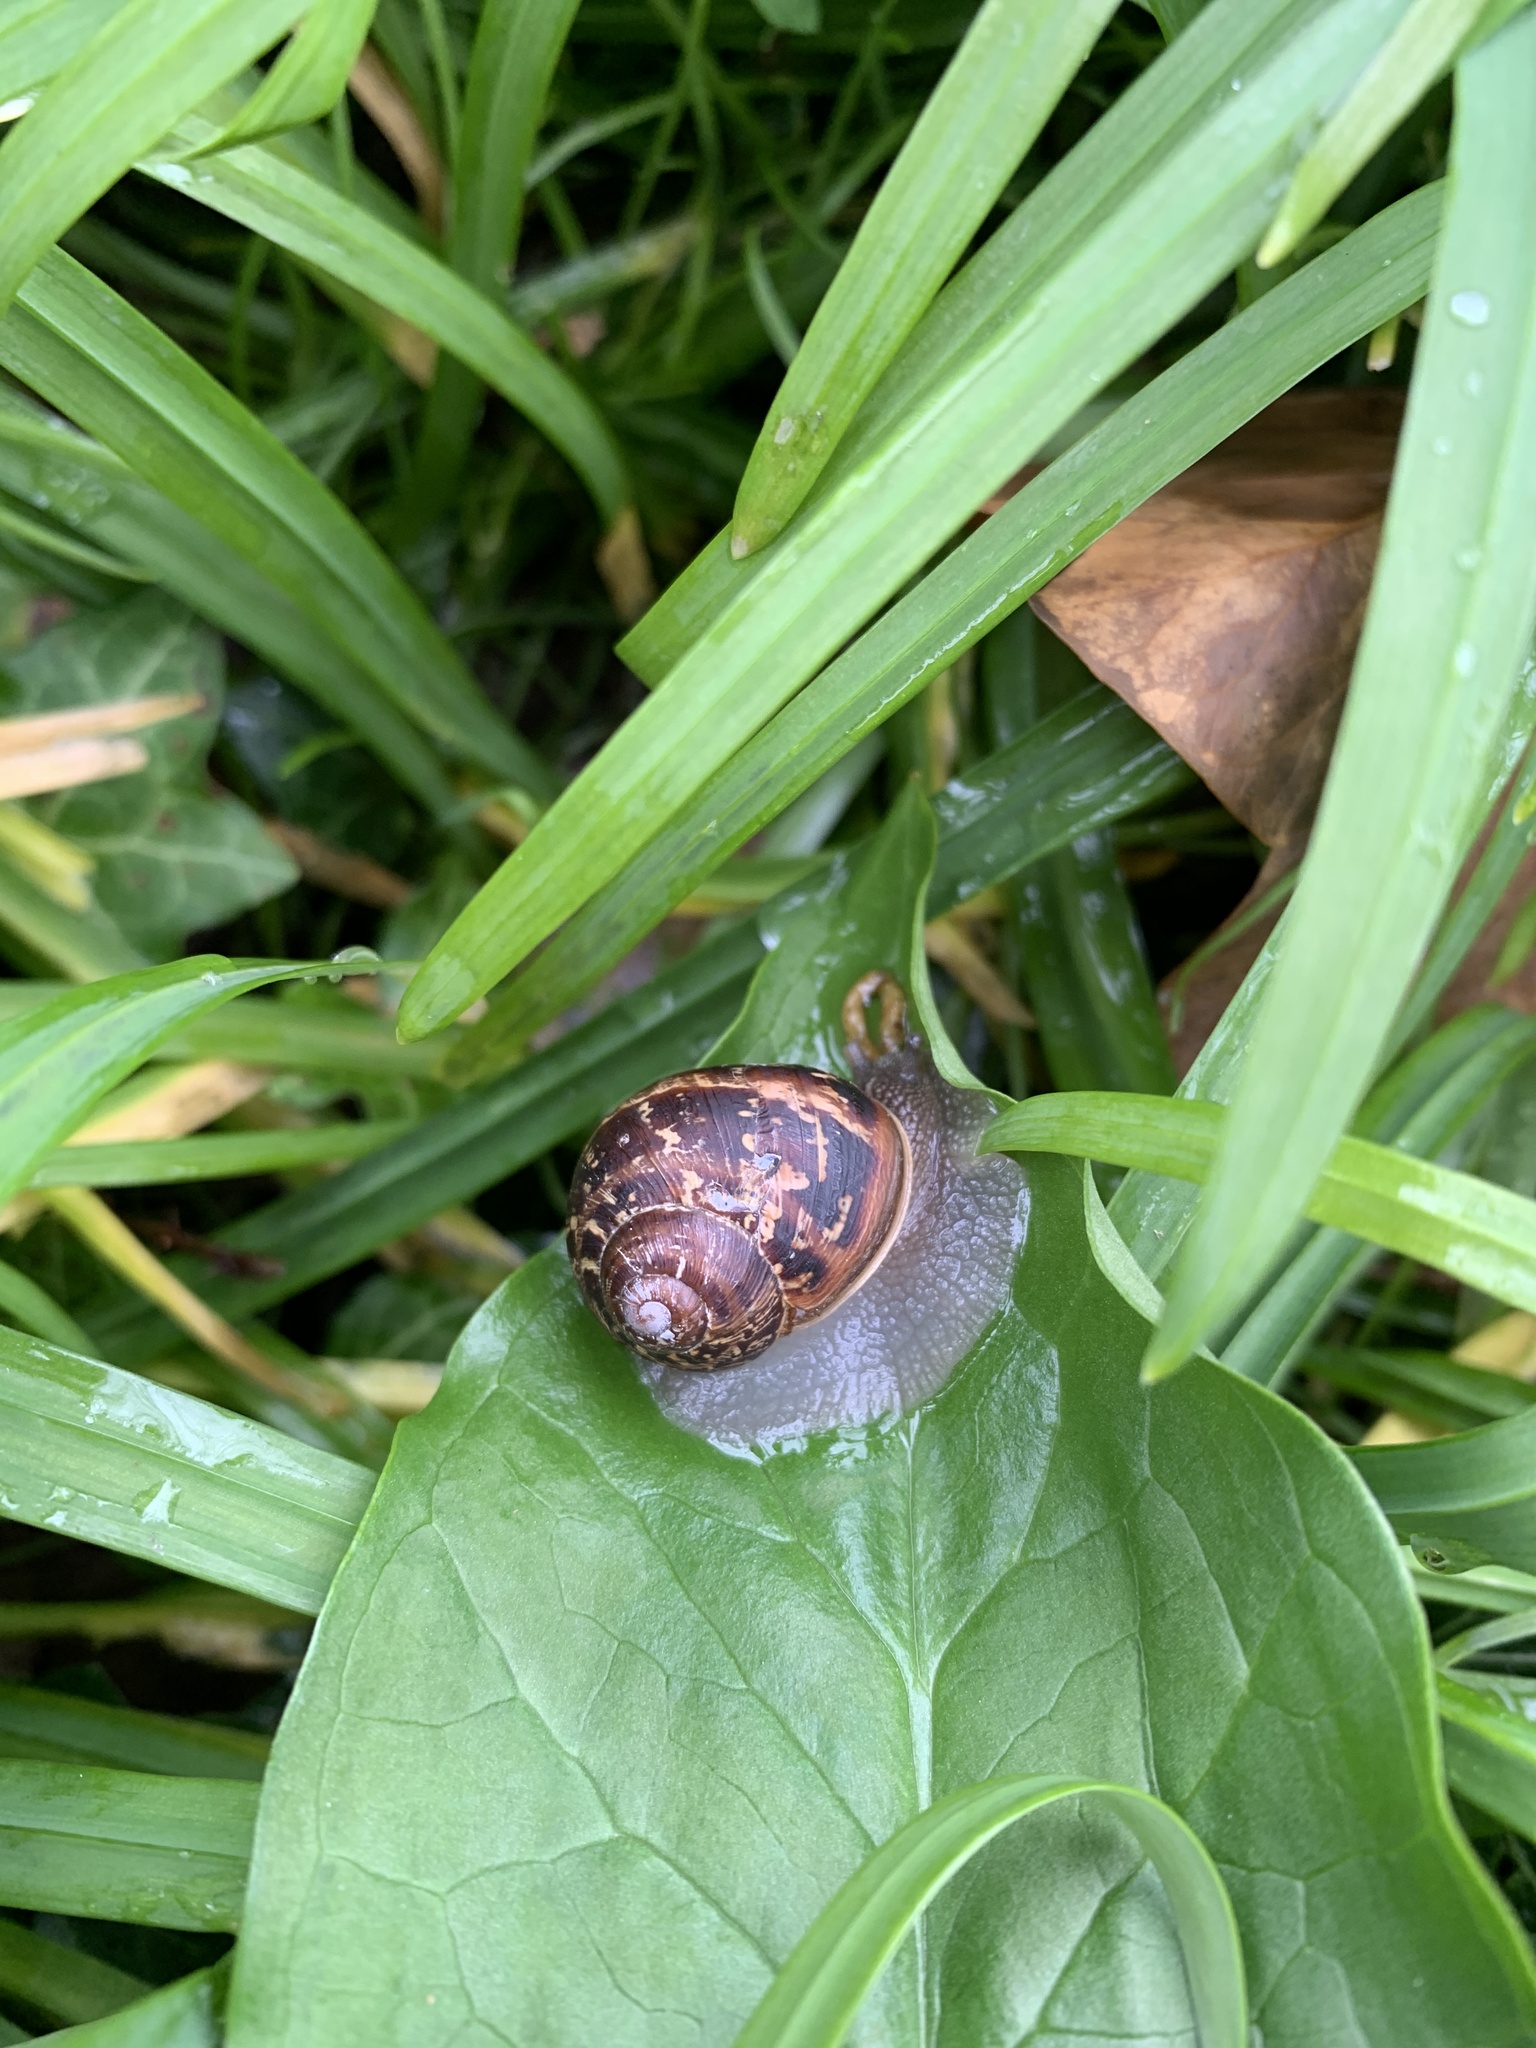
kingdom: Animalia
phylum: Mollusca
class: Gastropoda
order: Stylommatophora
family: Helicidae
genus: Cornu
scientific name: Cornu aspersum
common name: Brown garden snail
